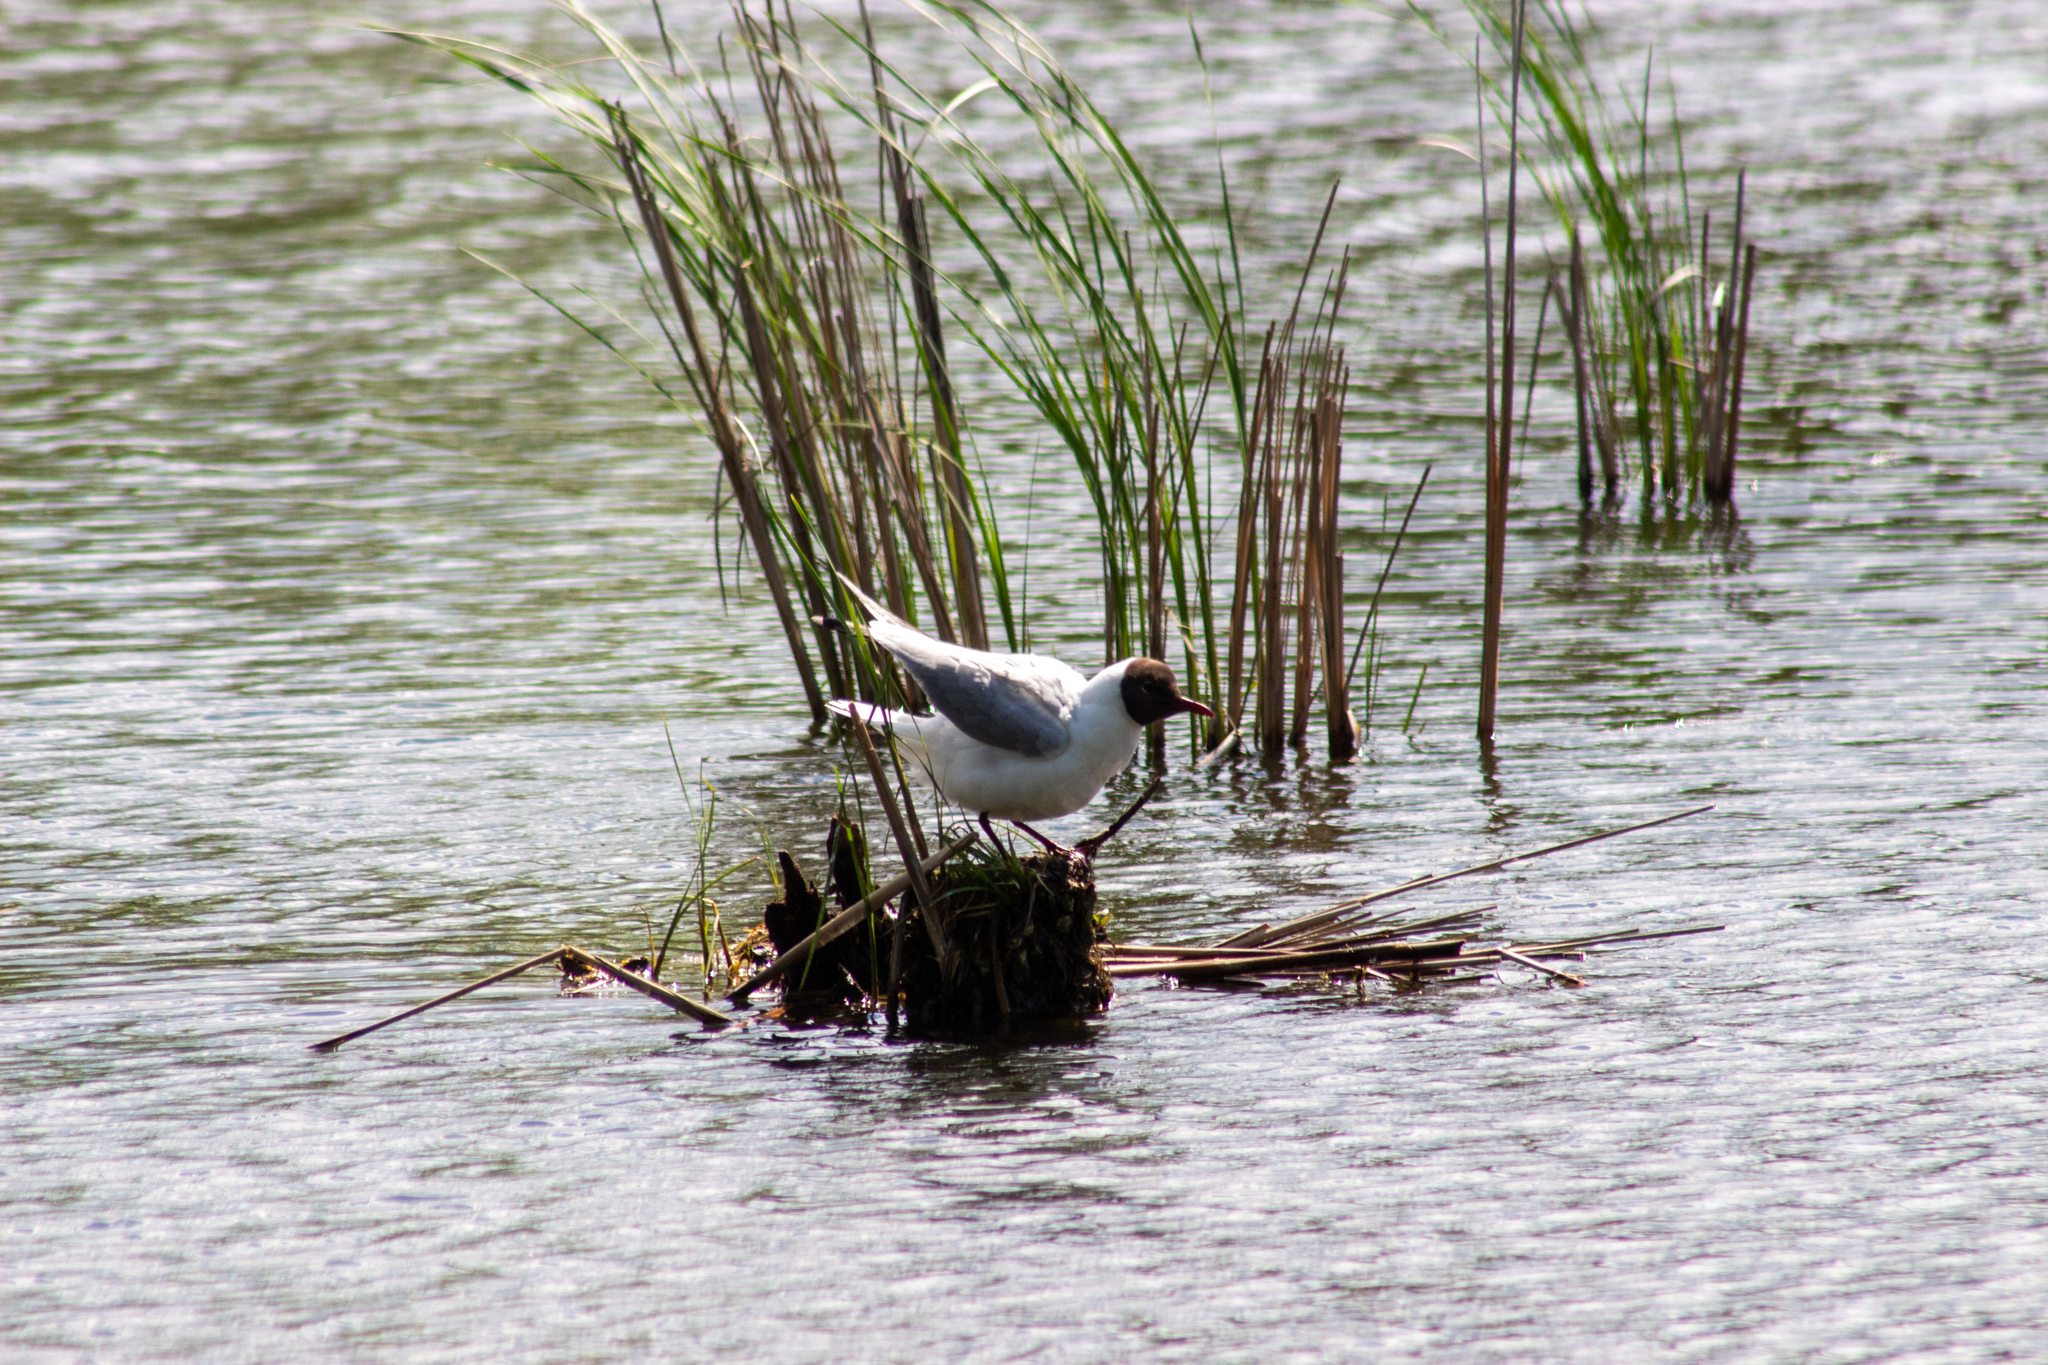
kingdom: Animalia
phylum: Chordata
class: Aves
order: Charadriiformes
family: Laridae
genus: Chroicocephalus
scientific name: Chroicocephalus ridibundus
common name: Black-headed gull
